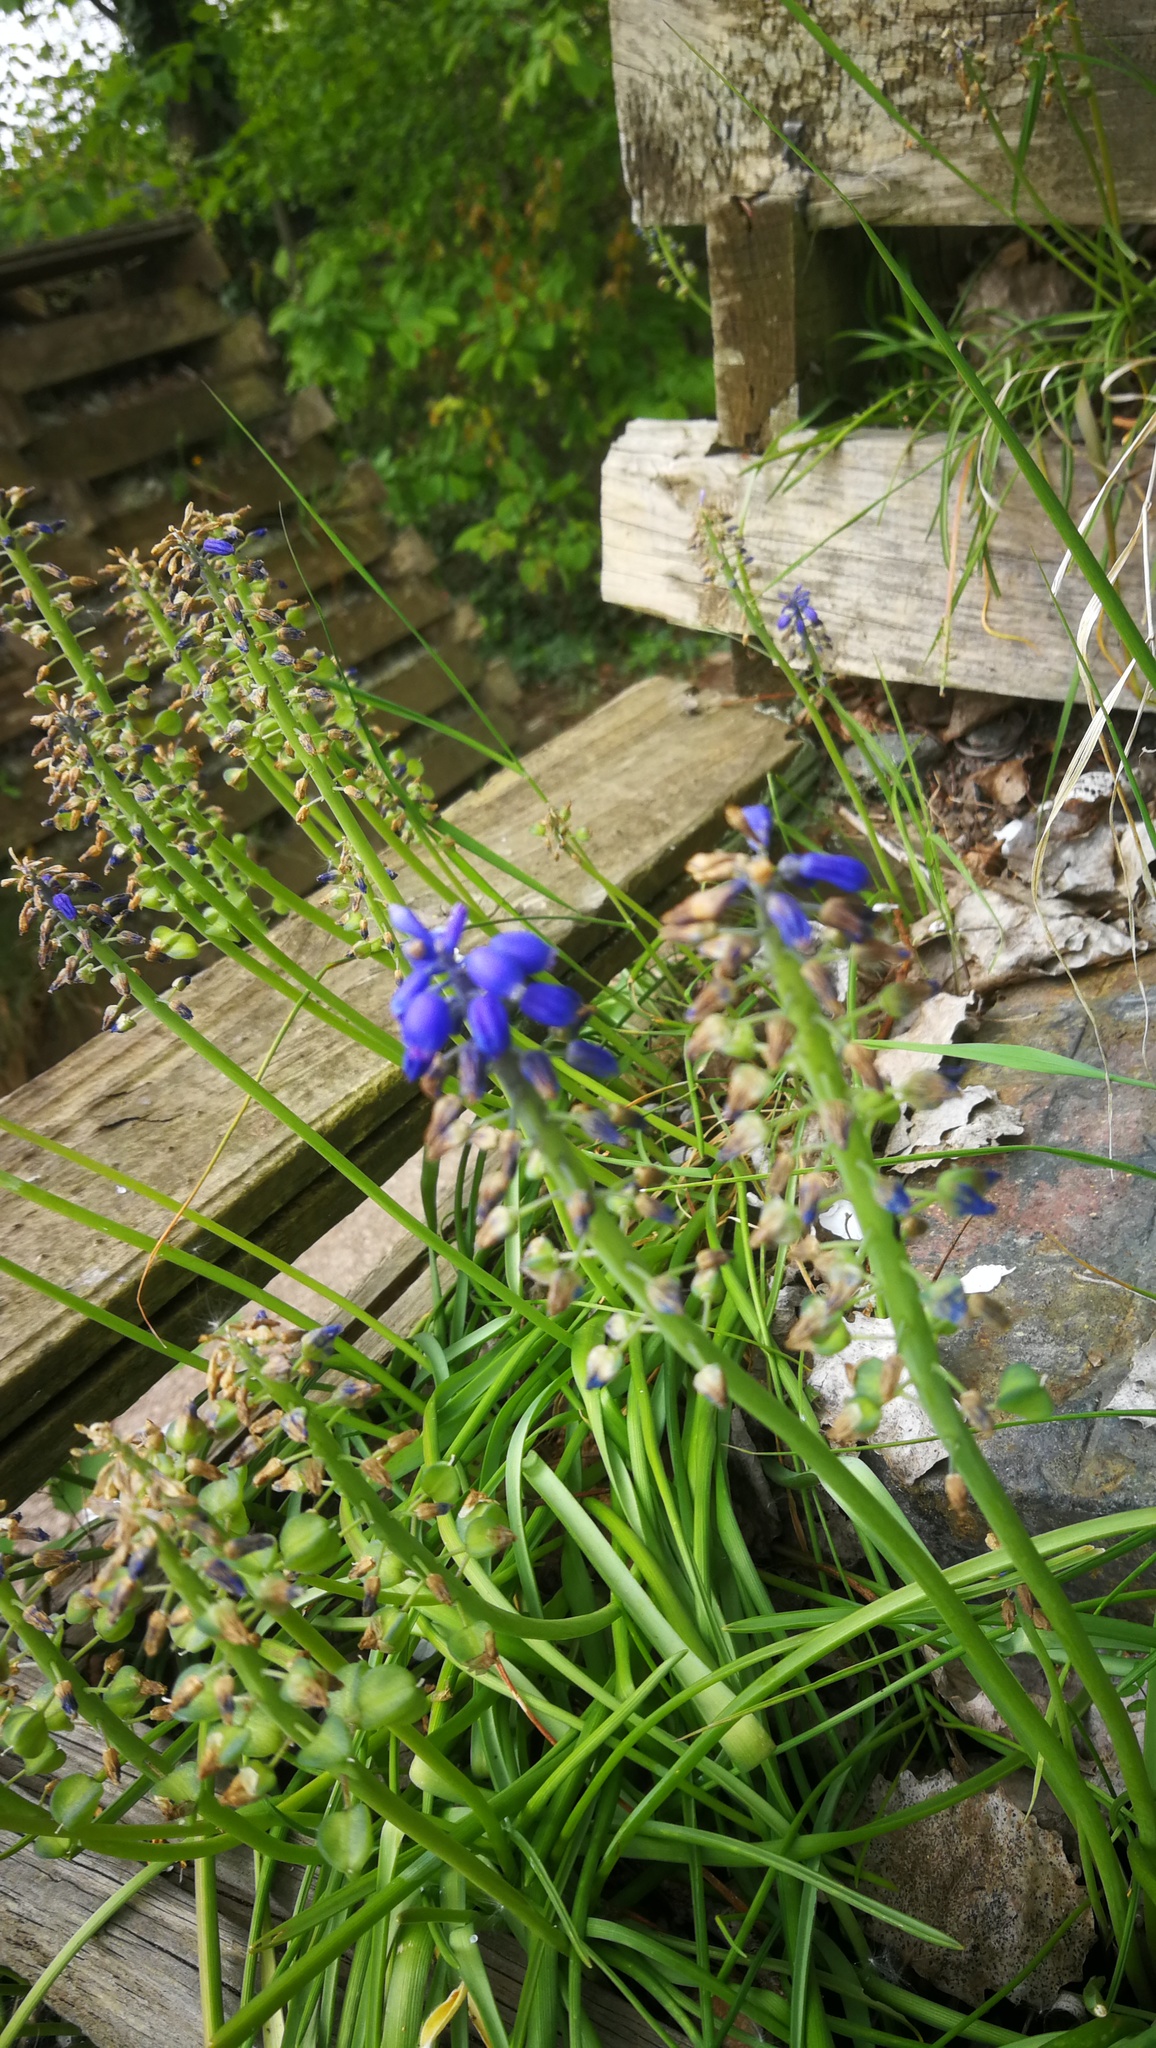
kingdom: Plantae
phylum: Tracheophyta
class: Liliopsida
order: Asparagales
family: Asparagaceae
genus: Muscari
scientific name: Muscari armeniacum
